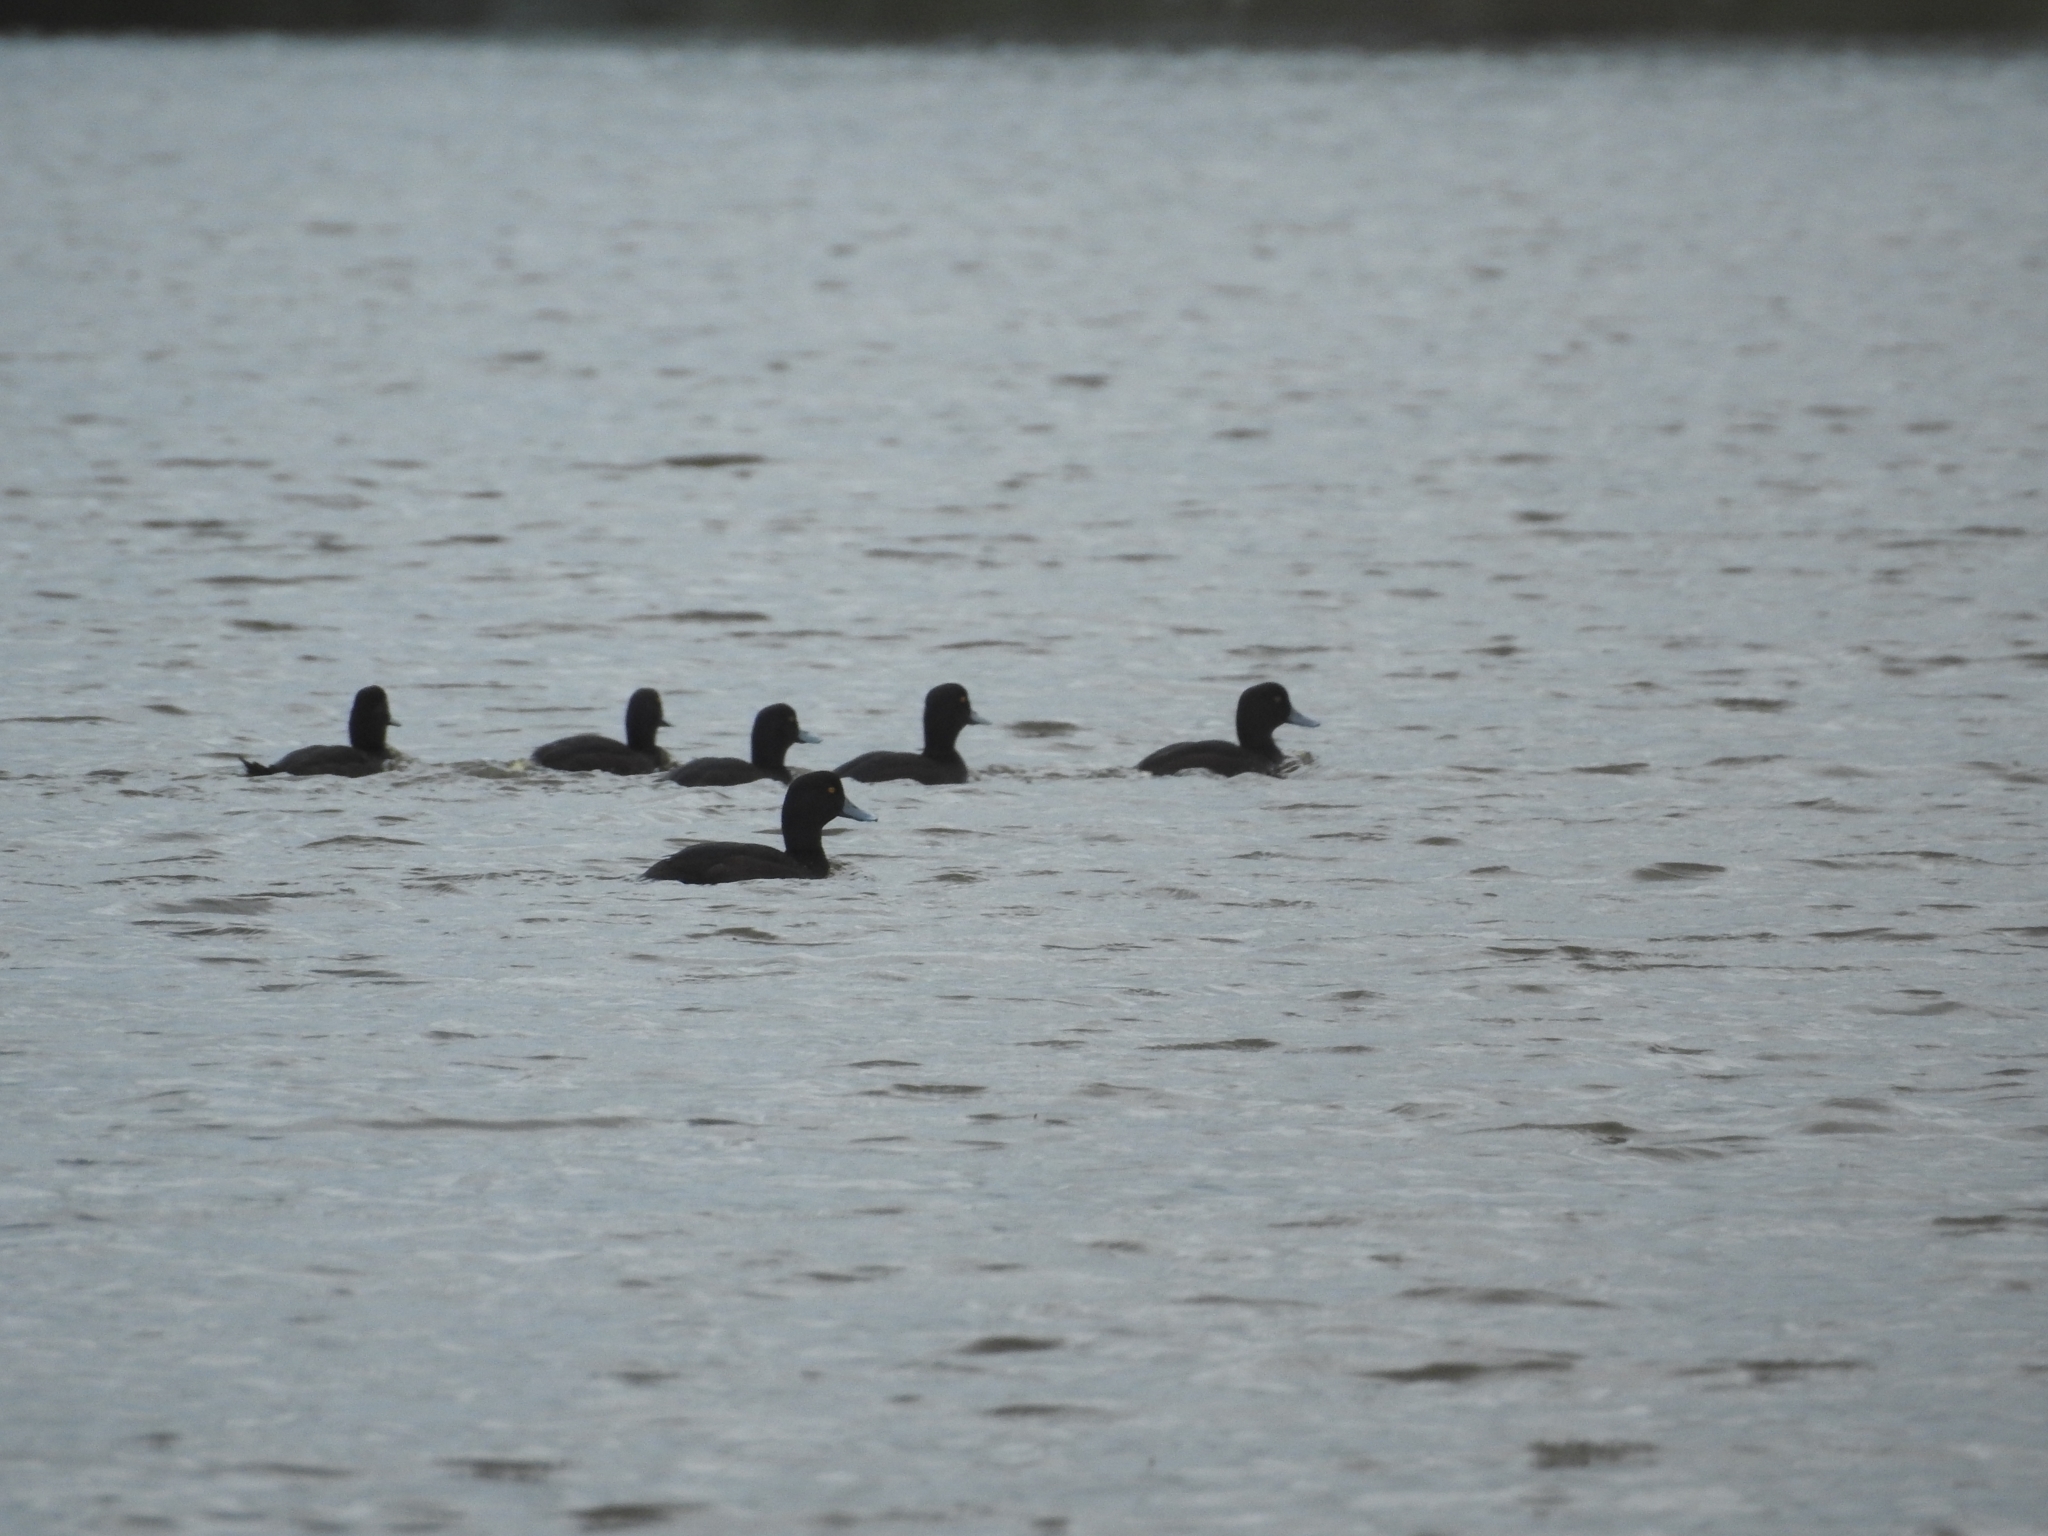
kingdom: Animalia
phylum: Chordata
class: Aves
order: Anseriformes
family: Anatidae
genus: Aythya
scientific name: Aythya novaeseelandiae
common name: New zealand scaup
